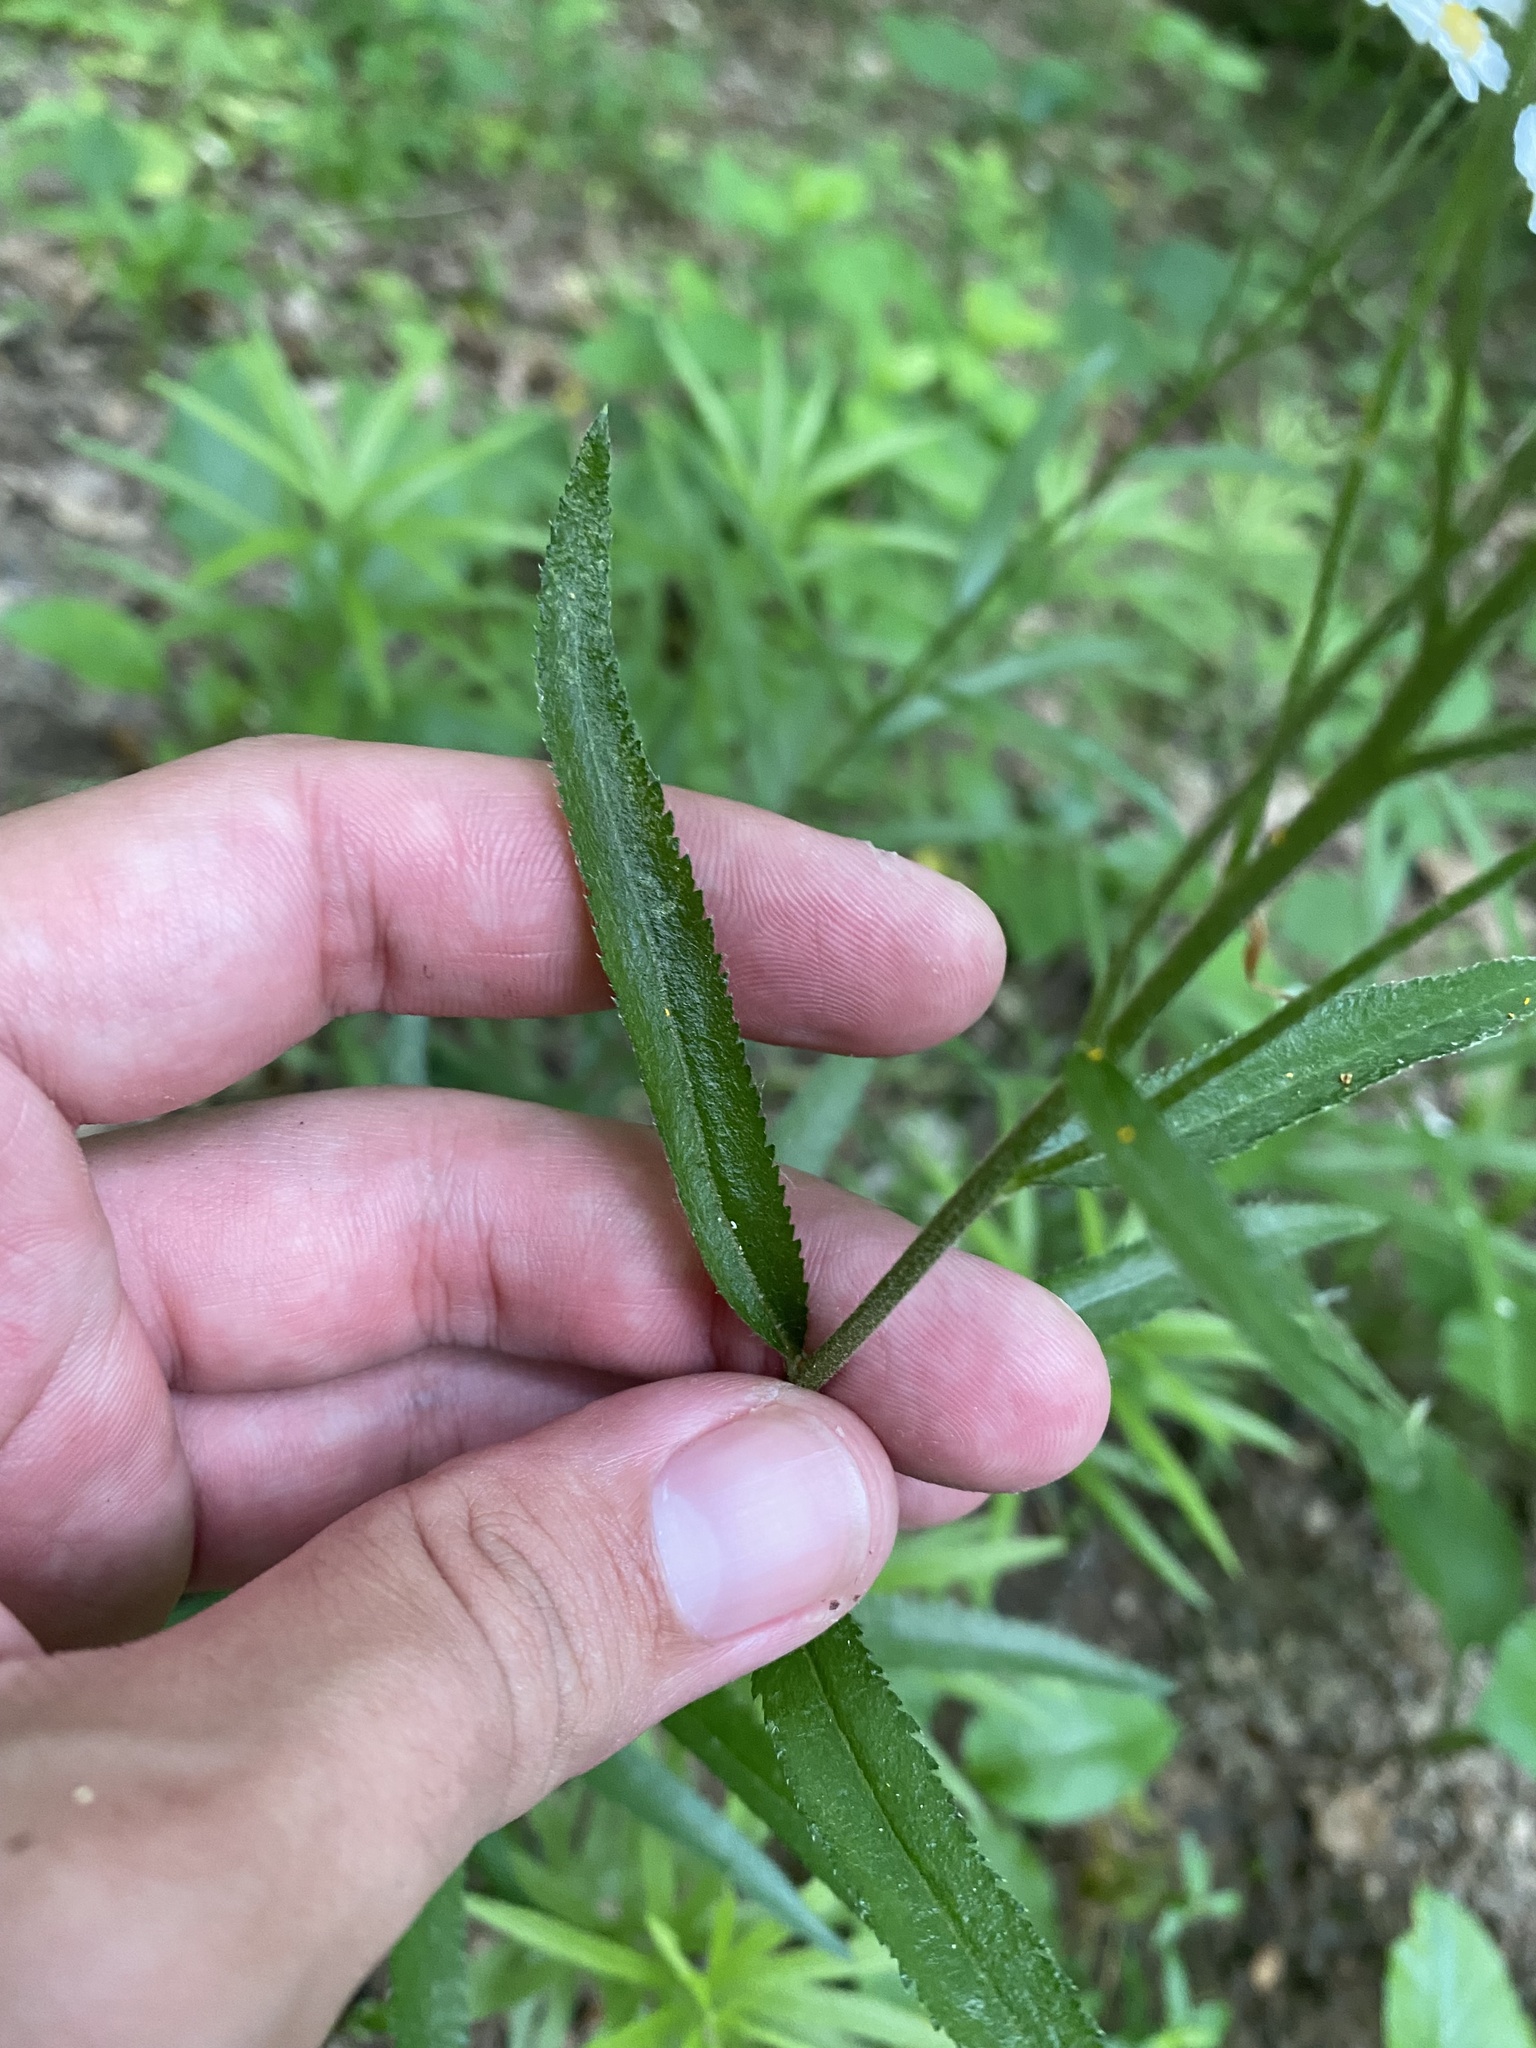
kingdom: Plantae
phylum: Tracheophyta
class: Magnoliopsida
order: Asterales
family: Asteraceae
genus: Achillea
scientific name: Achillea biserrata
